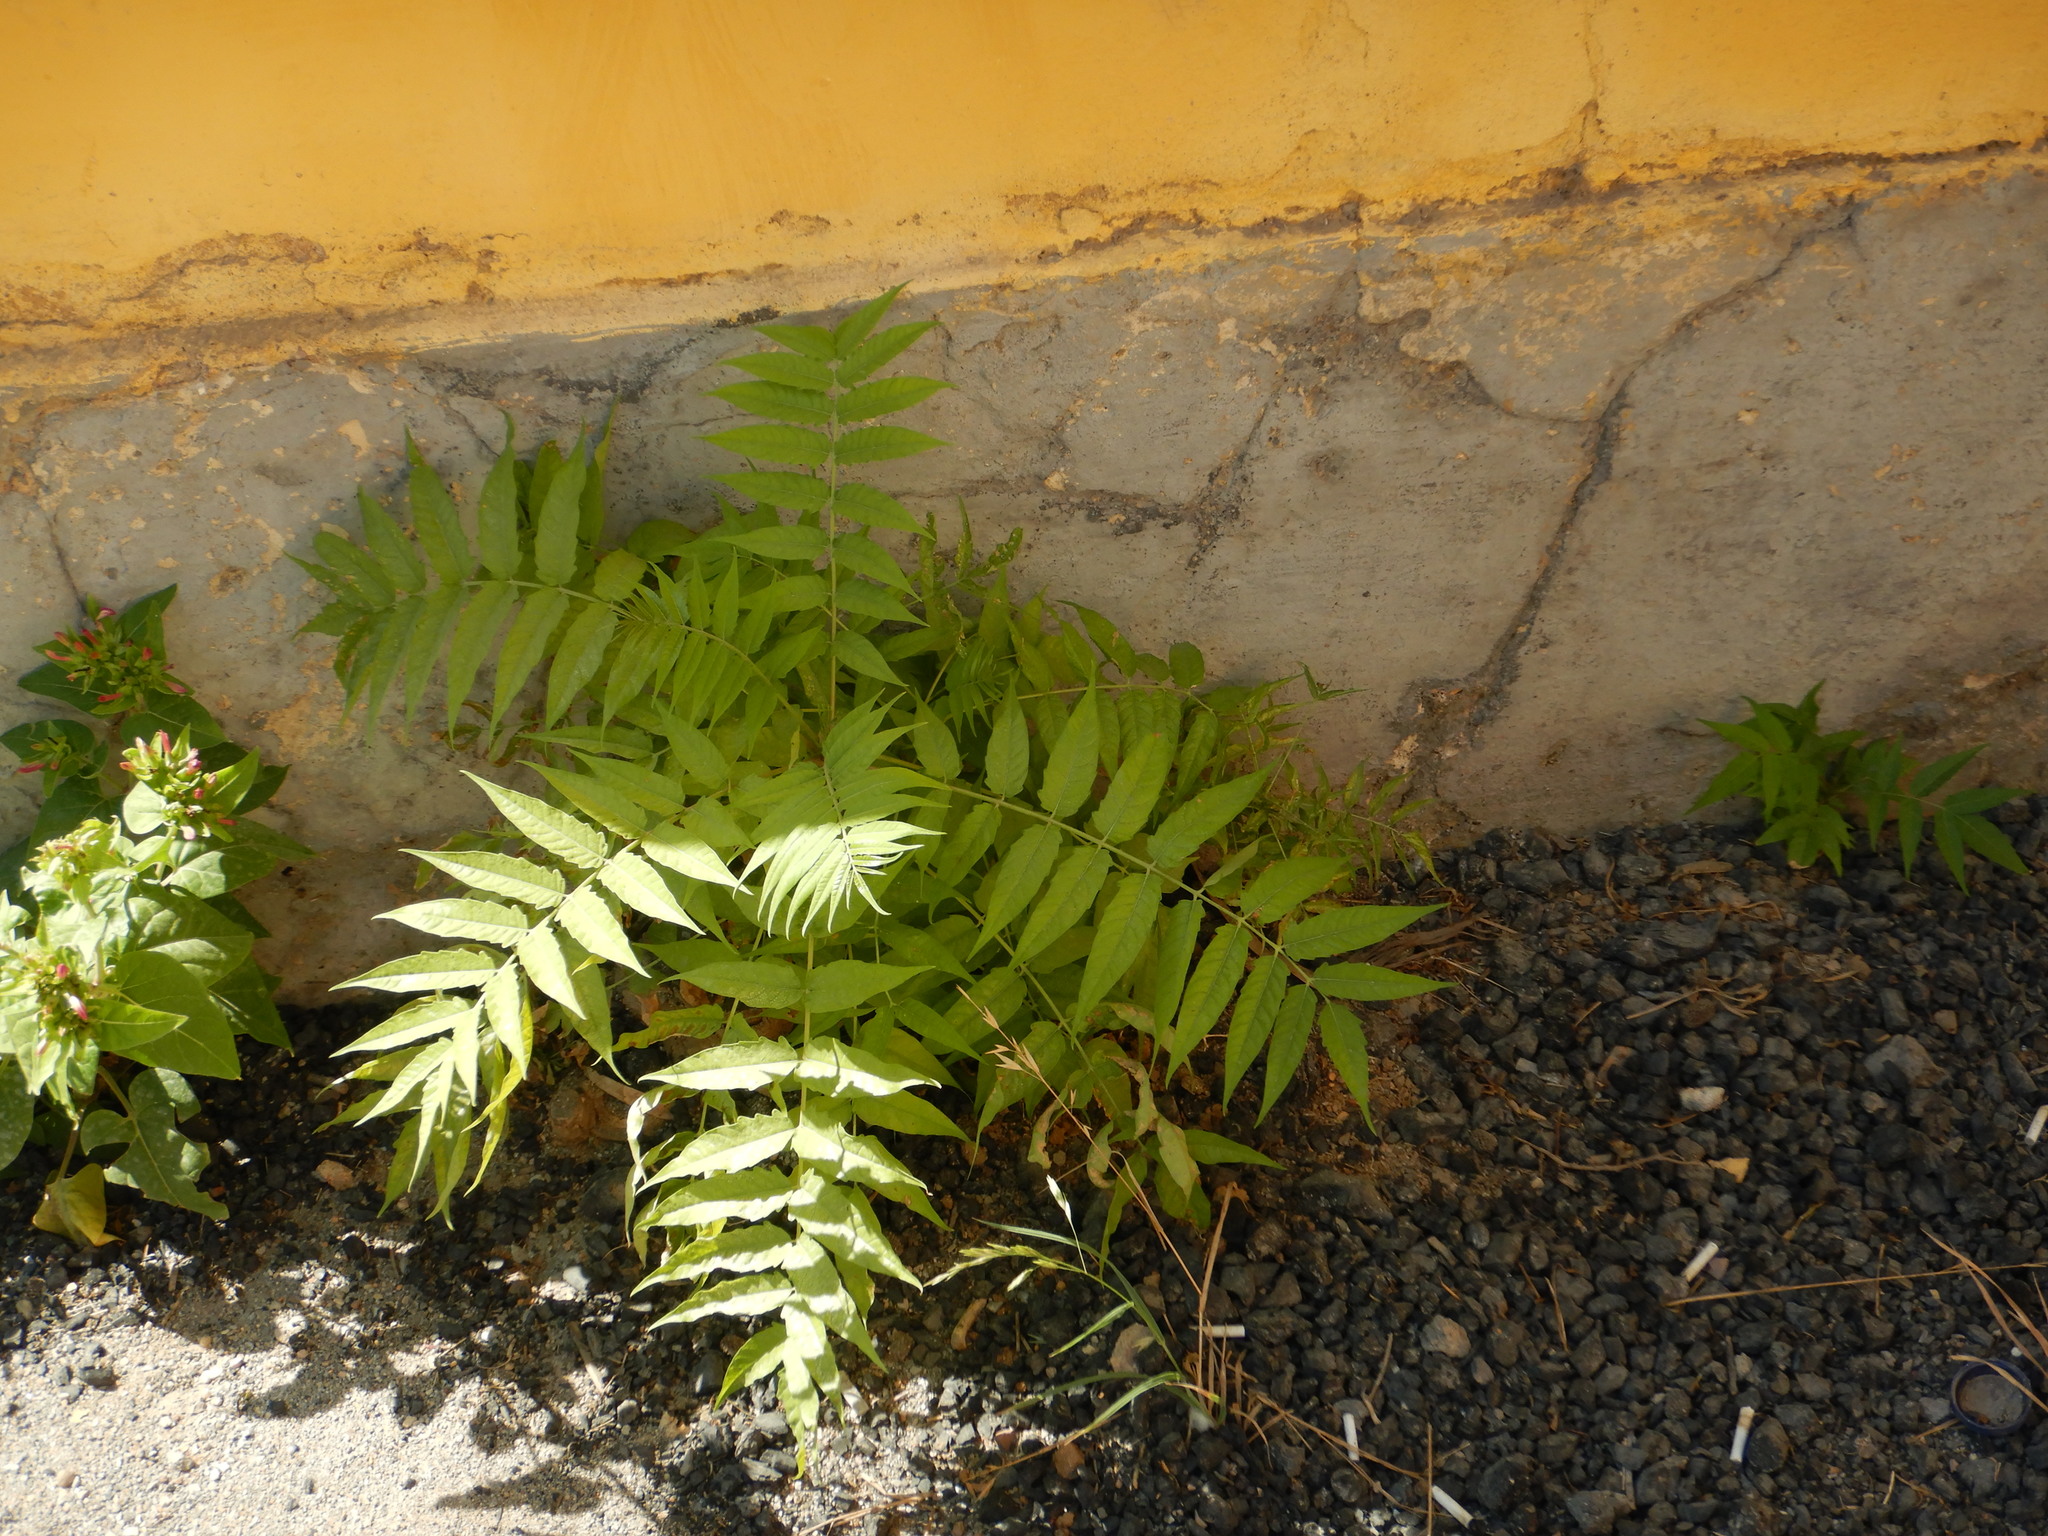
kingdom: Plantae
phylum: Tracheophyta
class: Magnoliopsida
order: Sapindales
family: Simaroubaceae
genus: Ailanthus
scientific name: Ailanthus altissima
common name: Tree-of-heaven
